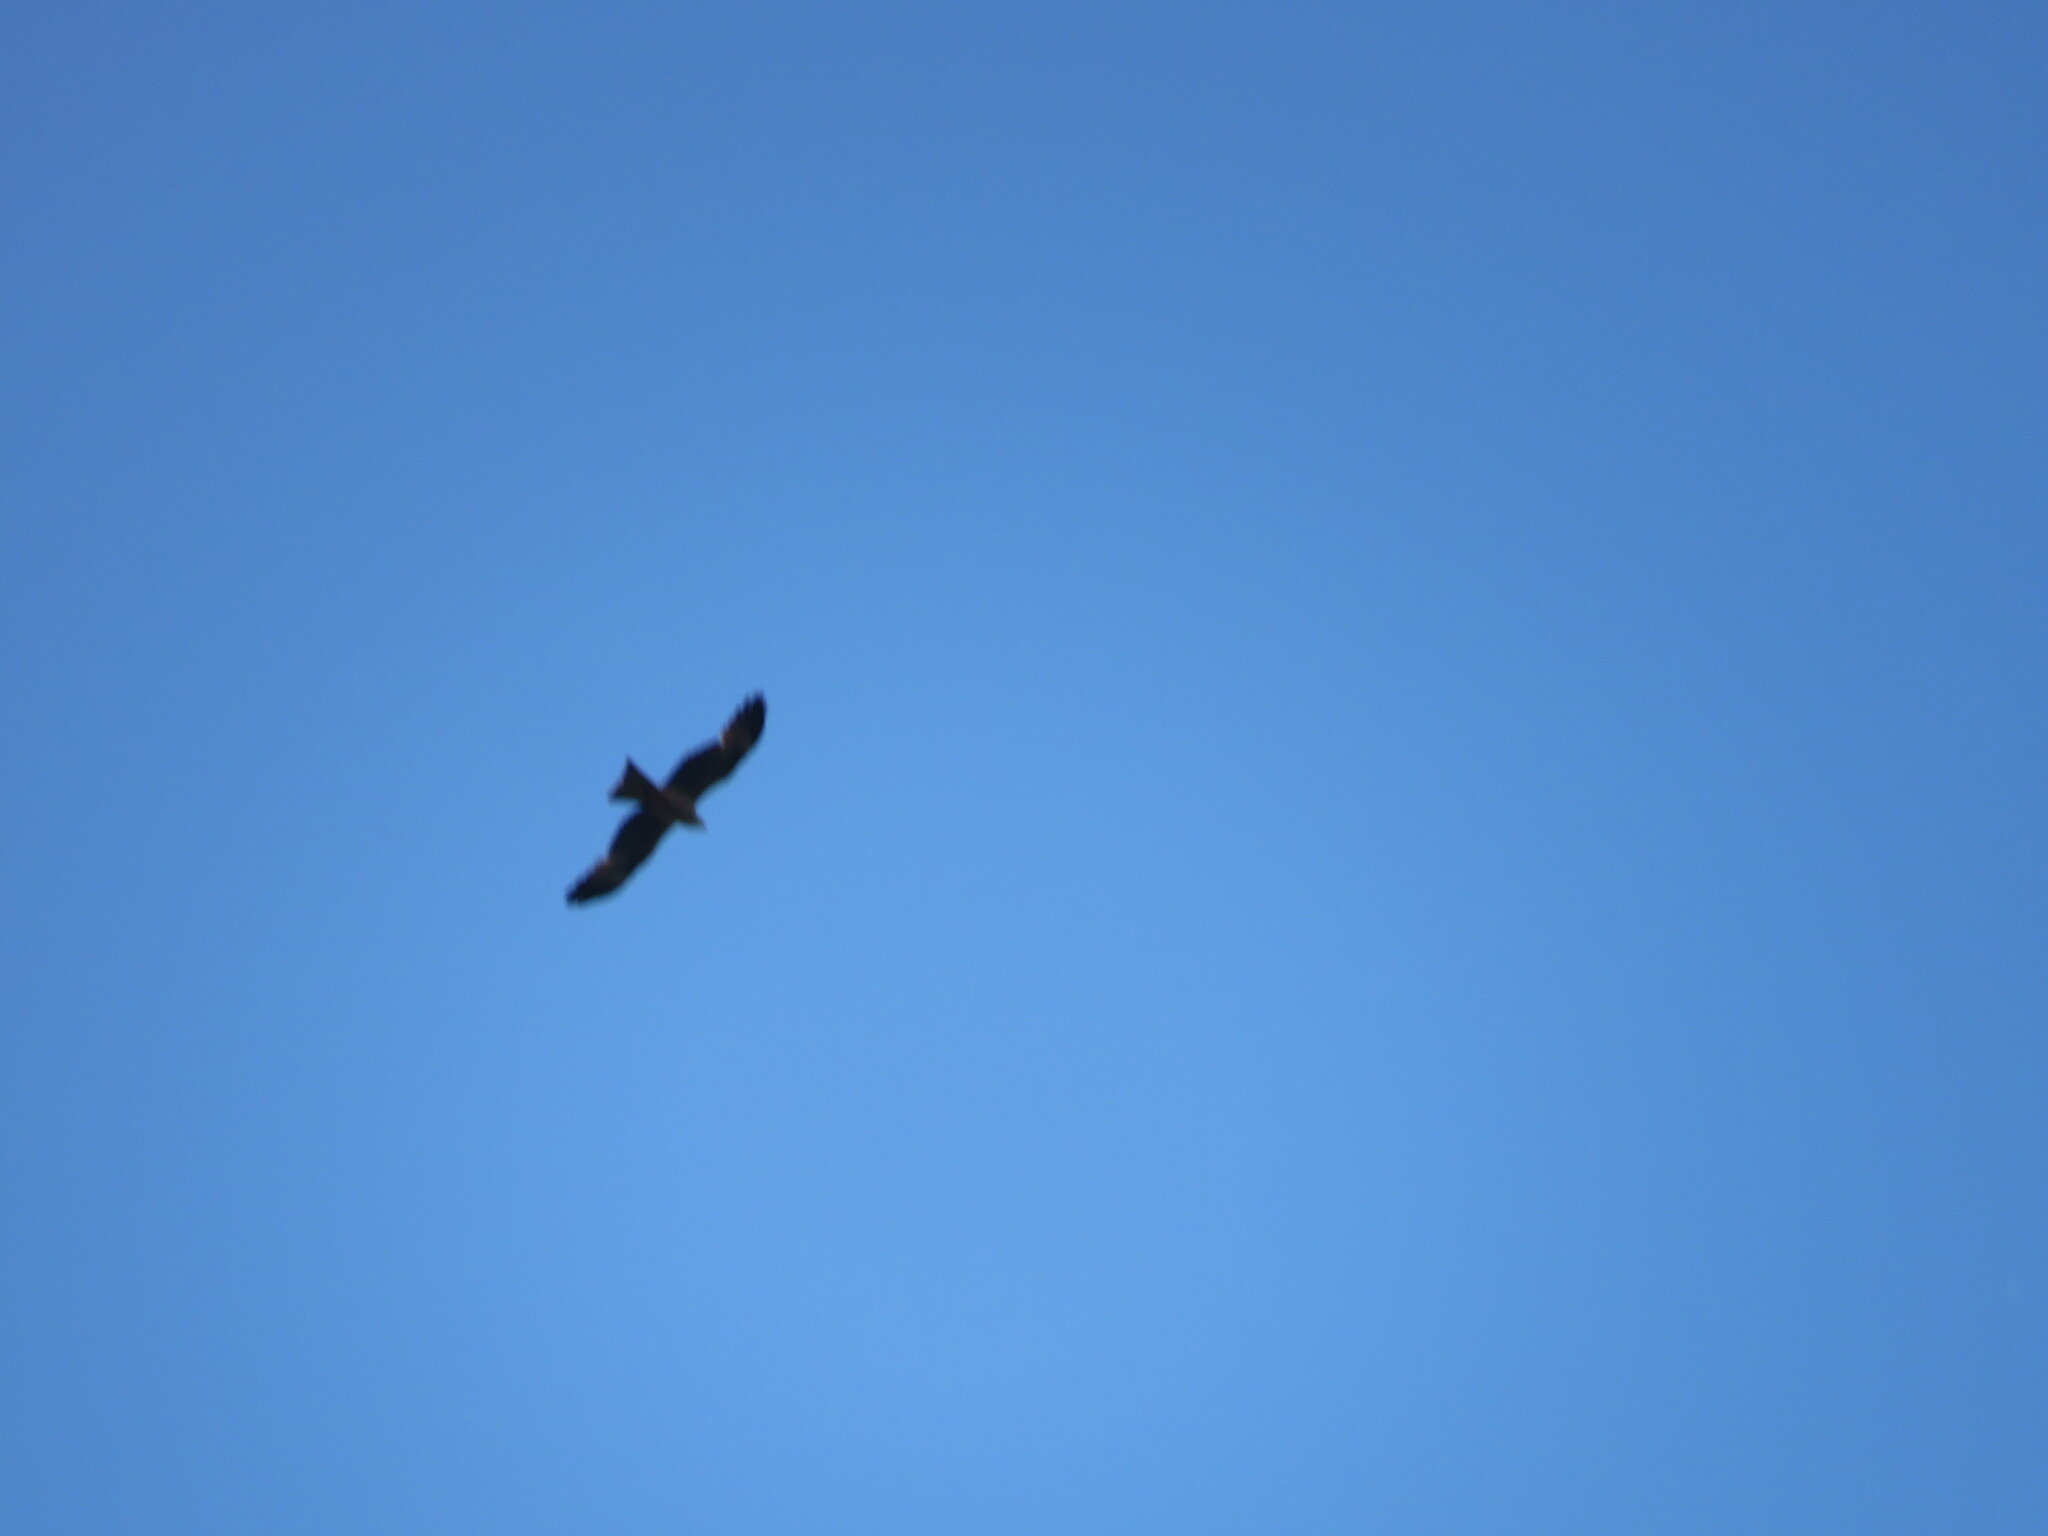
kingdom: Animalia
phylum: Chordata
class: Aves
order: Accipitriformes
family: Accipitridae
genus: Milvus
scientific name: Milvus migrans
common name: Black kite
